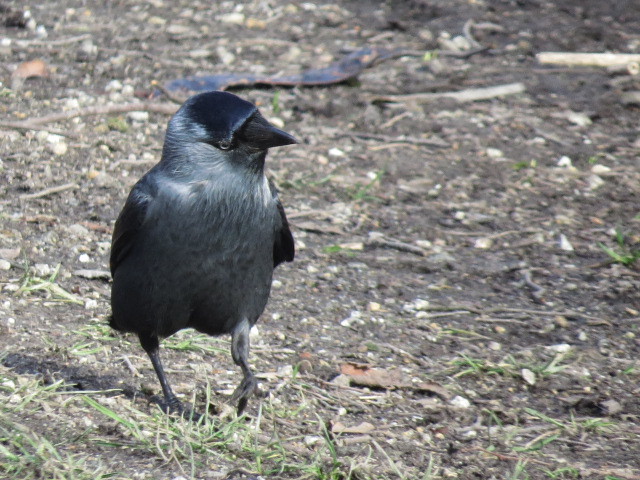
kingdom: Animalia
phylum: Chordata
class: Aves
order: Passeriformes
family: Corvidae
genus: Coloeus
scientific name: Coloeus monedula
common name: Western jackdaw
